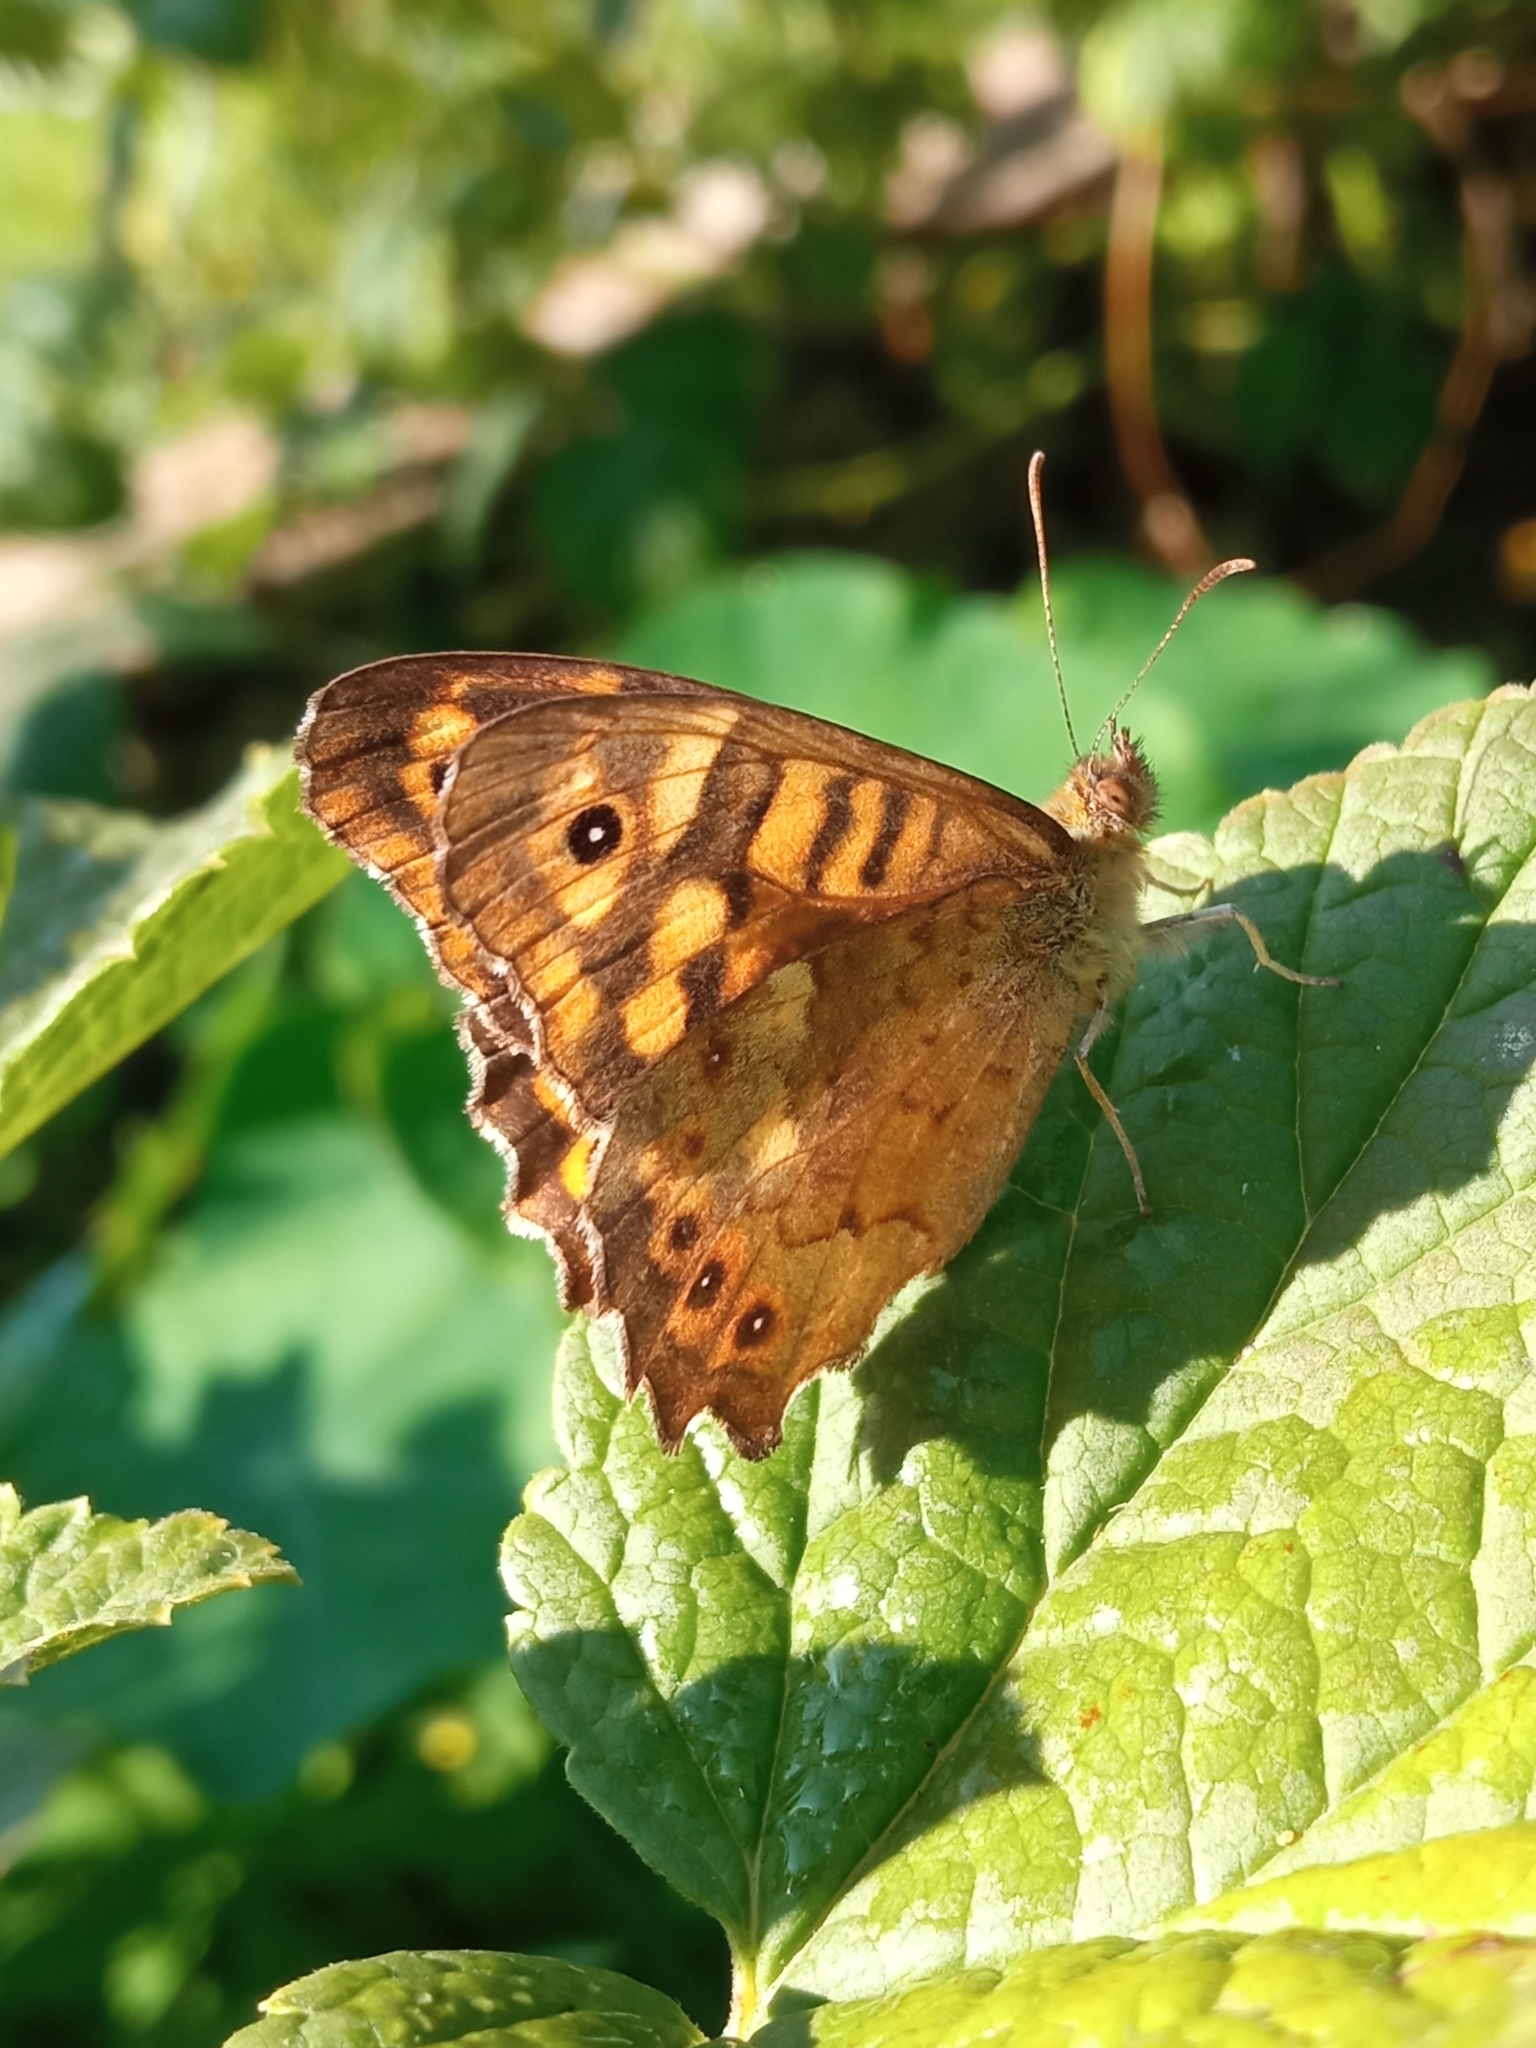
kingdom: Animalia
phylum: Arthropoda
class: Insecta
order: Lepidoptera
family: Nymphalidae
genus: Pararge
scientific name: Pararge aegeria
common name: Speckled wood
